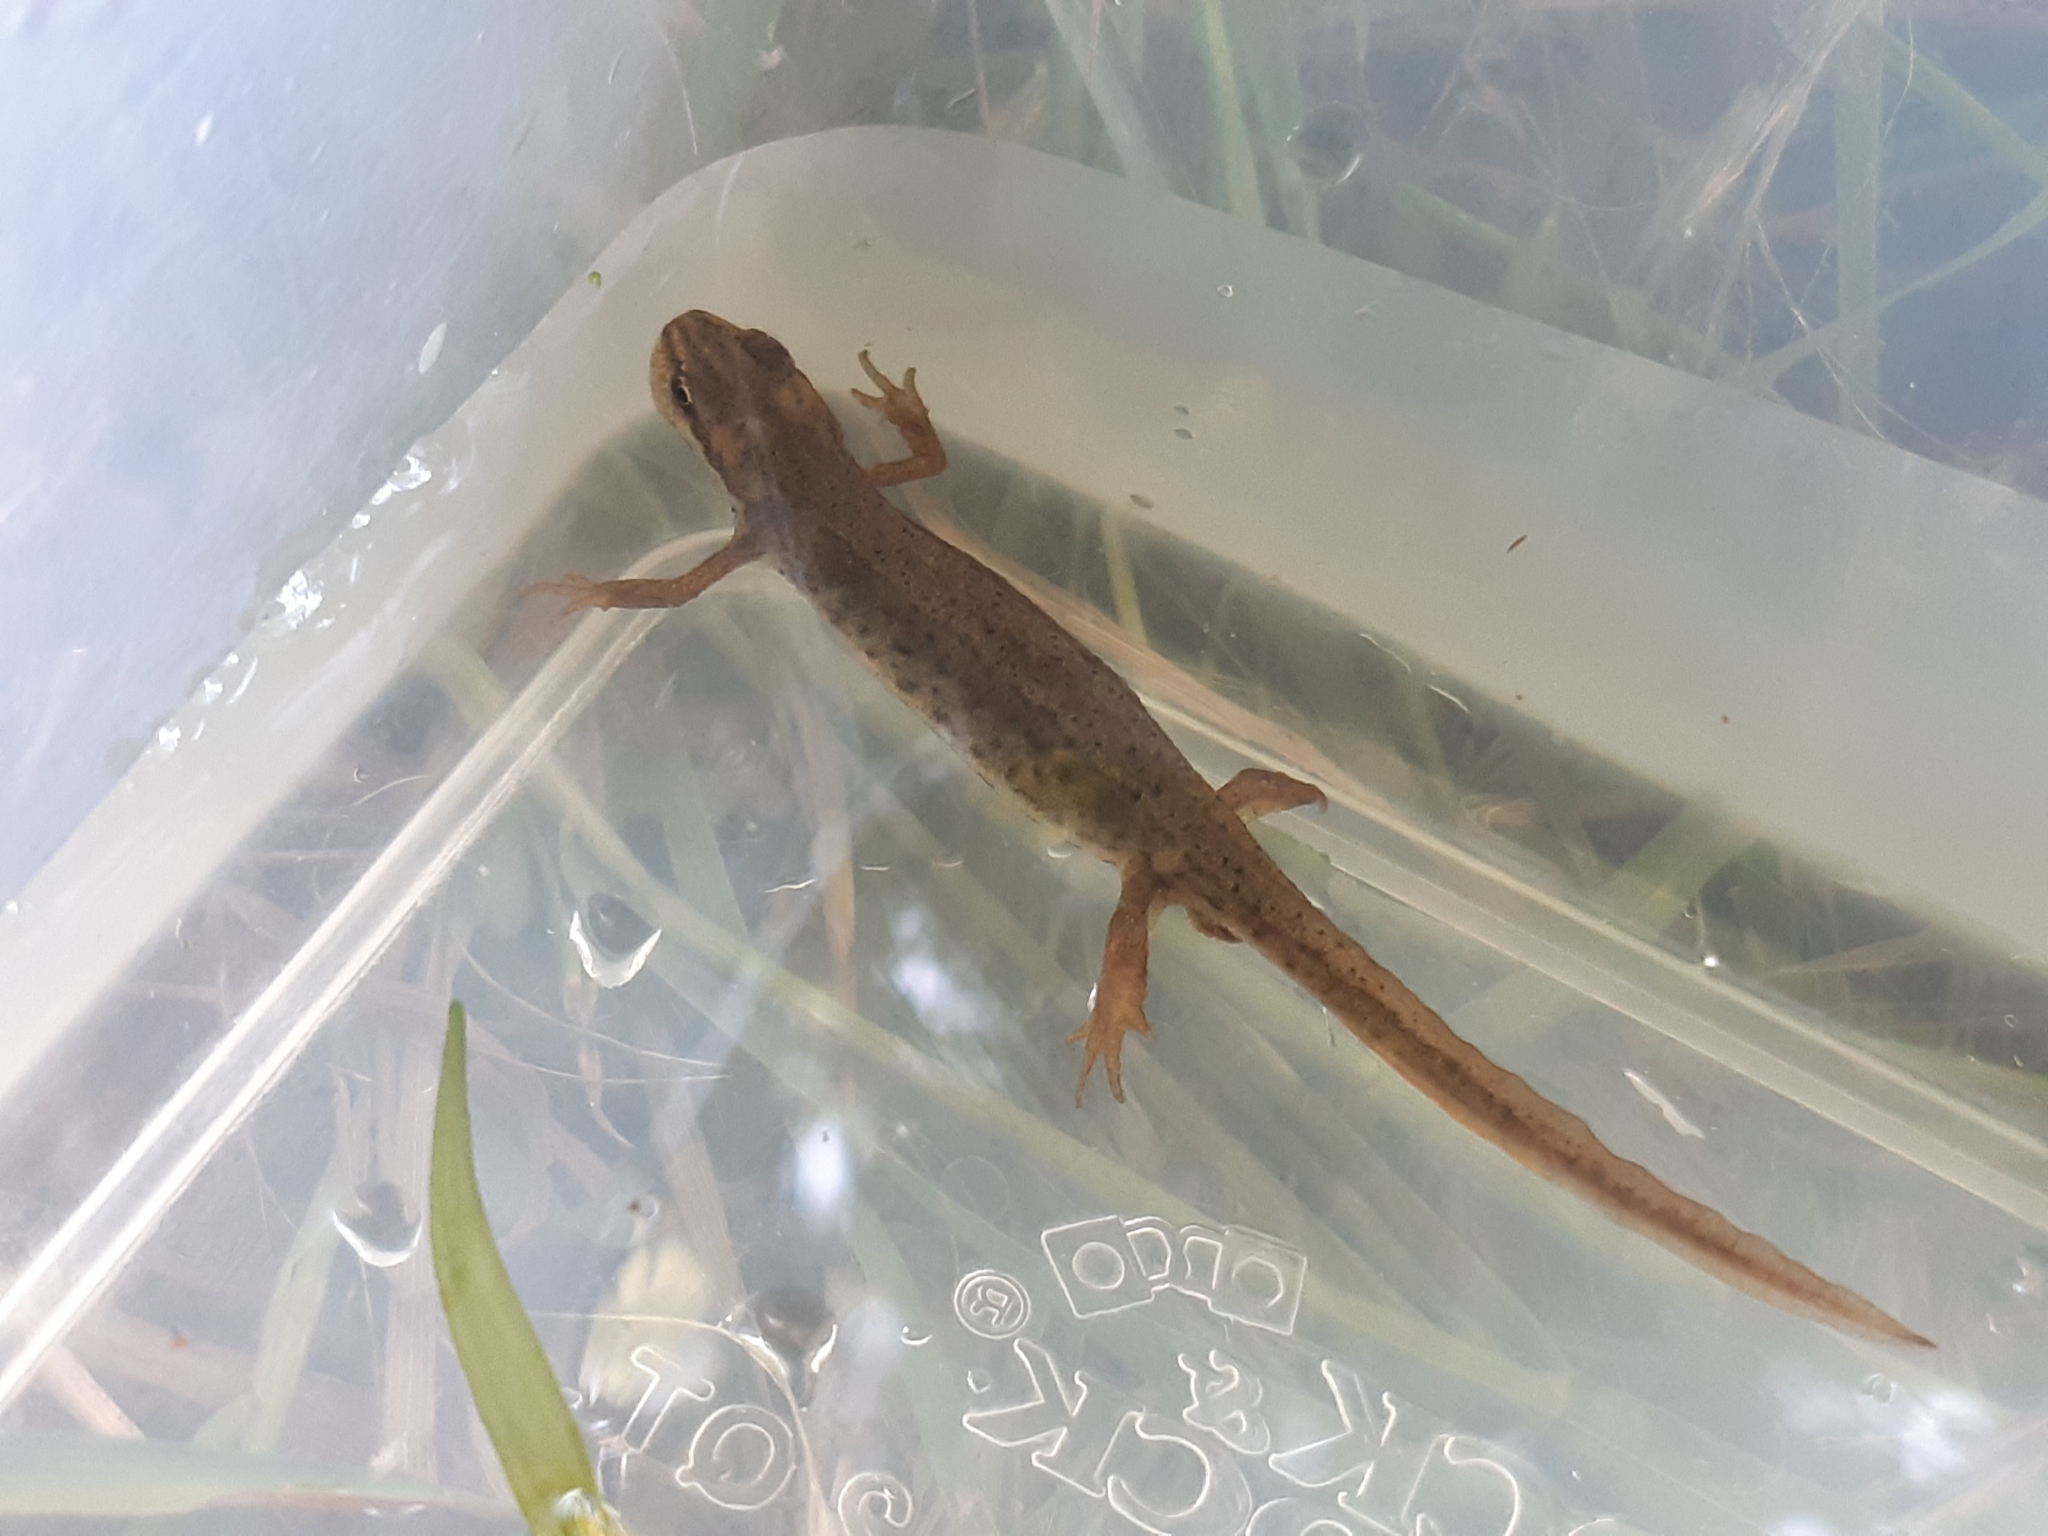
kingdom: Animalia
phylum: Chordata
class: Amphibia
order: Caudata
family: Salamandridae
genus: Lissotriton
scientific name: Lissotriton vulgaris
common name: Smooth newt
